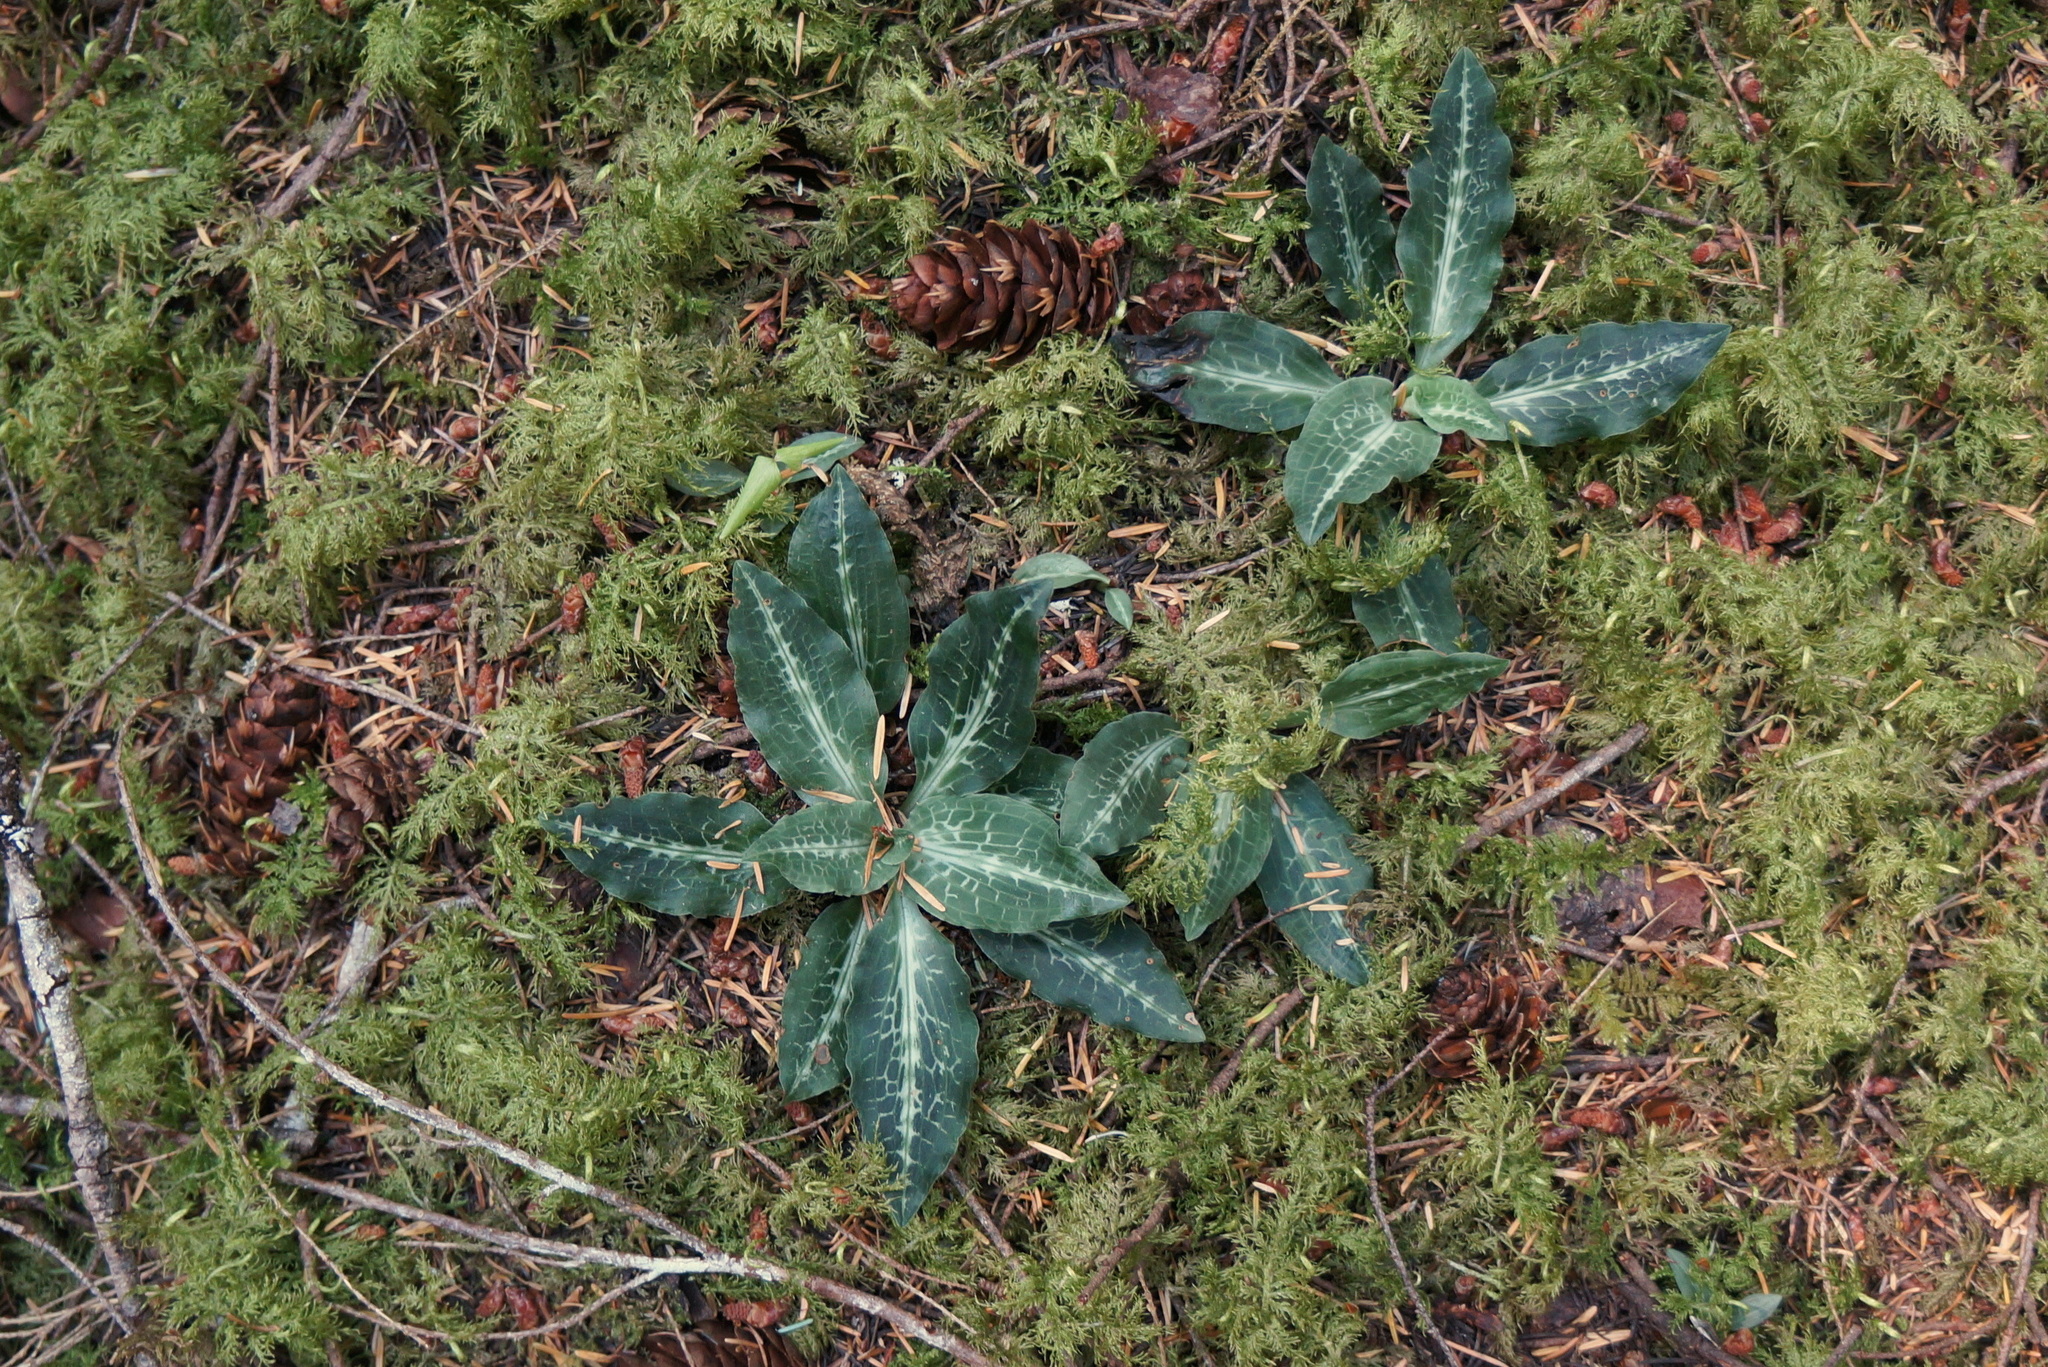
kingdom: Plantae
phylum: Tracheophyta
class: Liliopsida
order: Asparagales
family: Orchidaceae
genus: Goodyera
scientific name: Goodyera oblongifolia
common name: Giant rattlesnake-plantain
